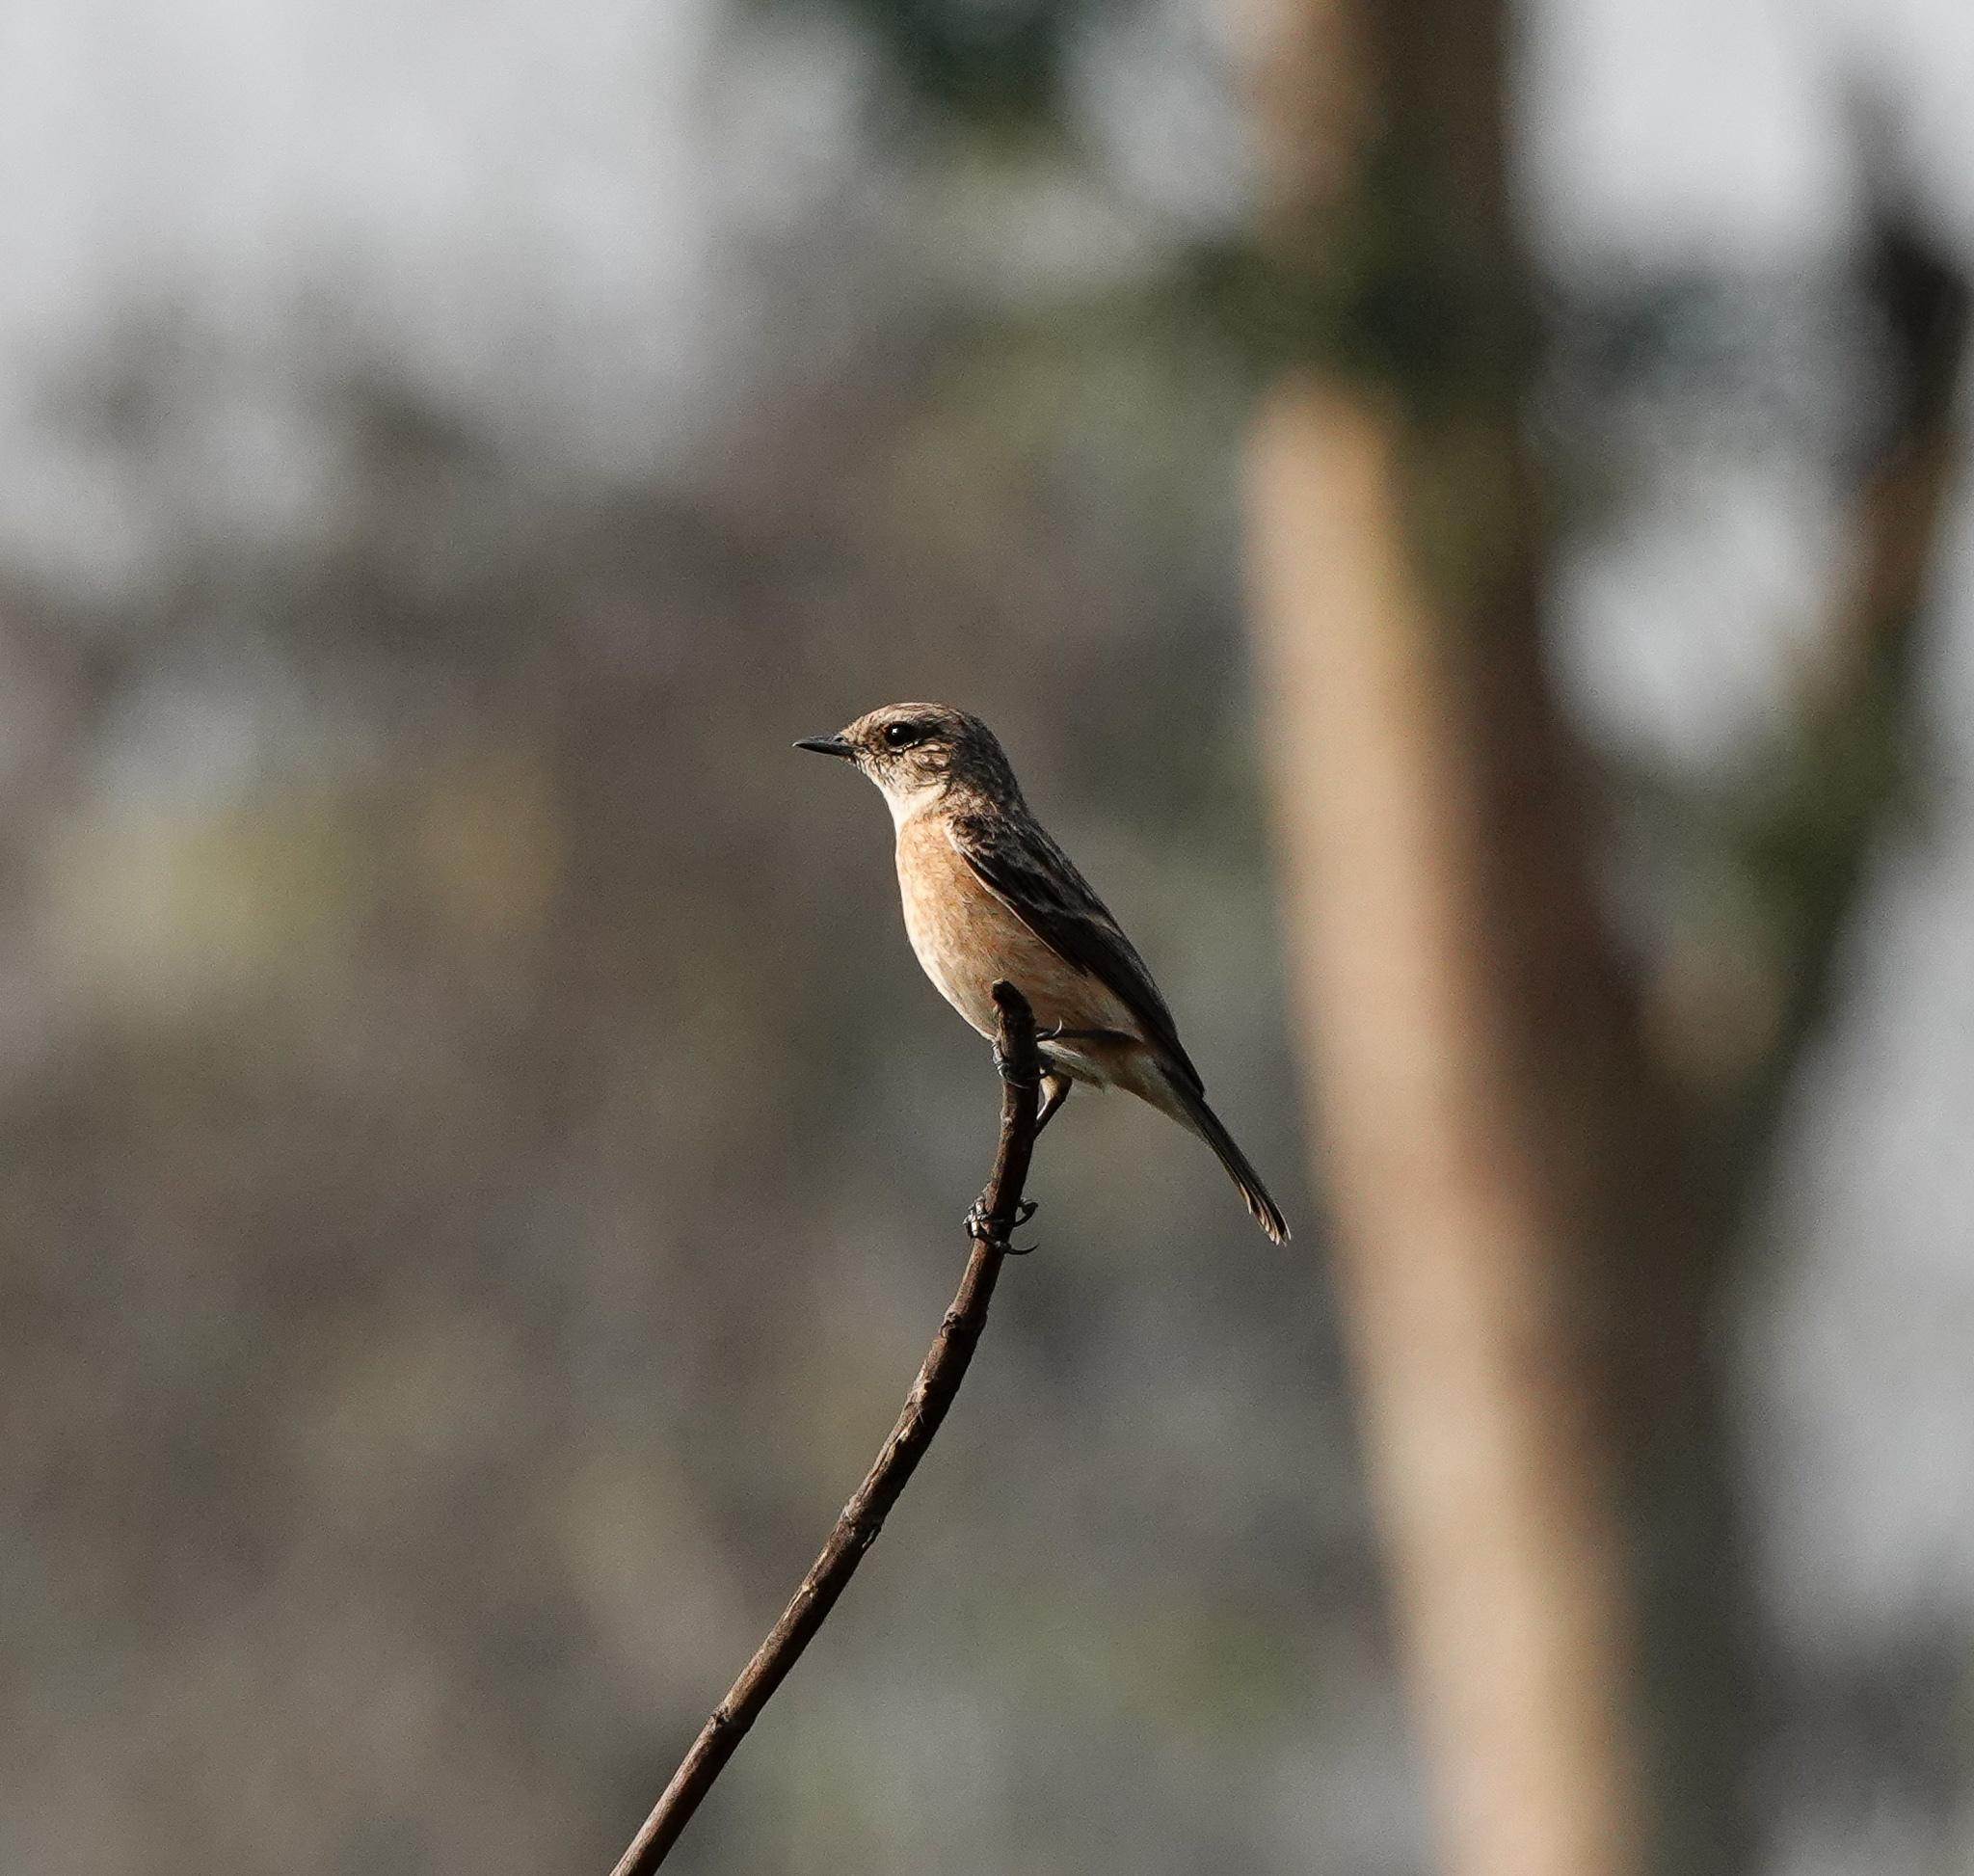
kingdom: Animalia
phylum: Chordata
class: Aves
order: Passeriformes
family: Muscicapidae
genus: Saxicola
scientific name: Saxicola maurus
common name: Siberian stonechat
